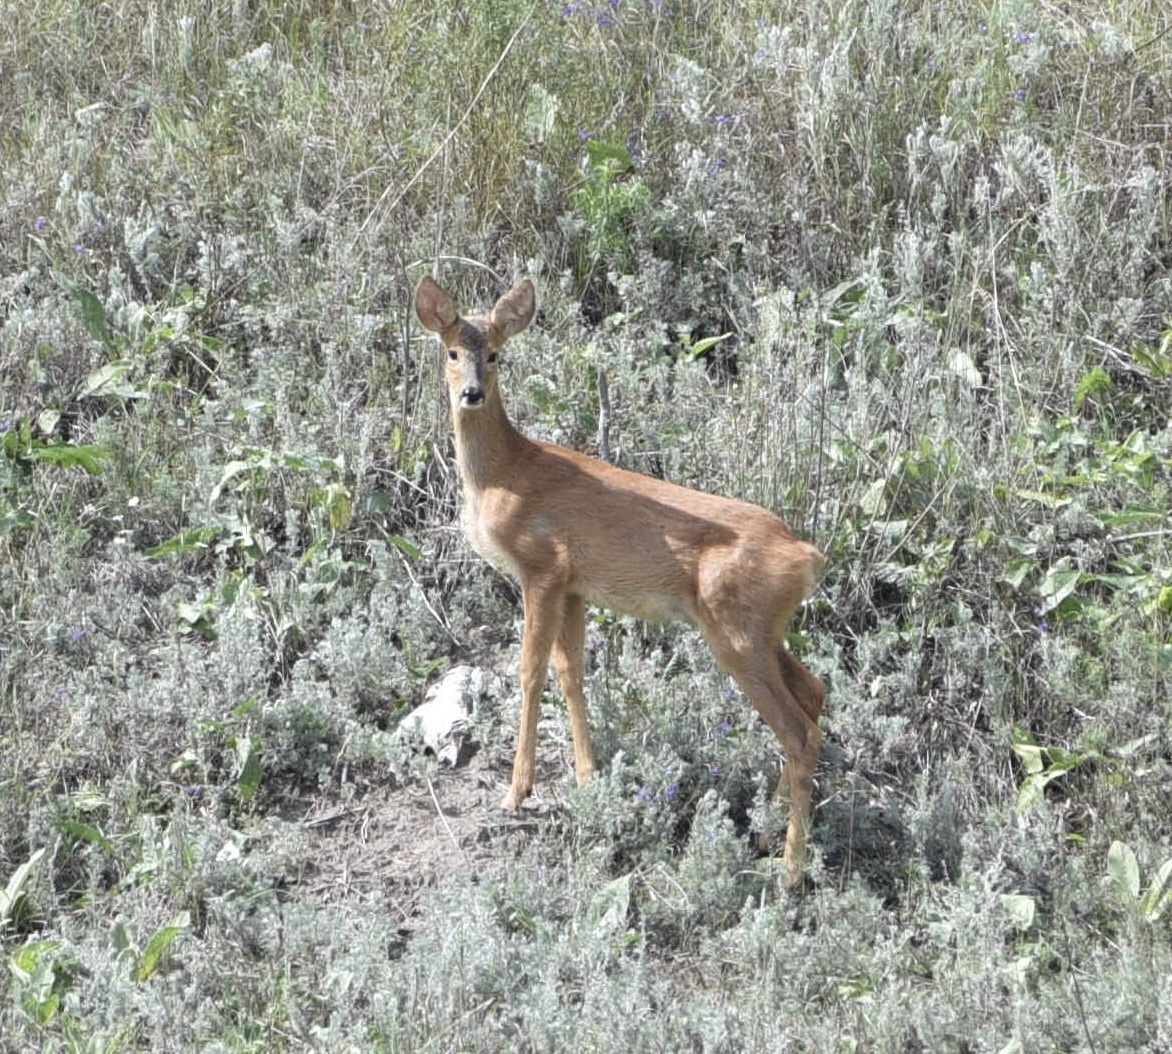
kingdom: Animalia
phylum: Chordata
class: Mammalia
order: Artiodactyla
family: Cervidae
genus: Capreolus
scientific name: Capreolus capreolus
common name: Western roe deer
